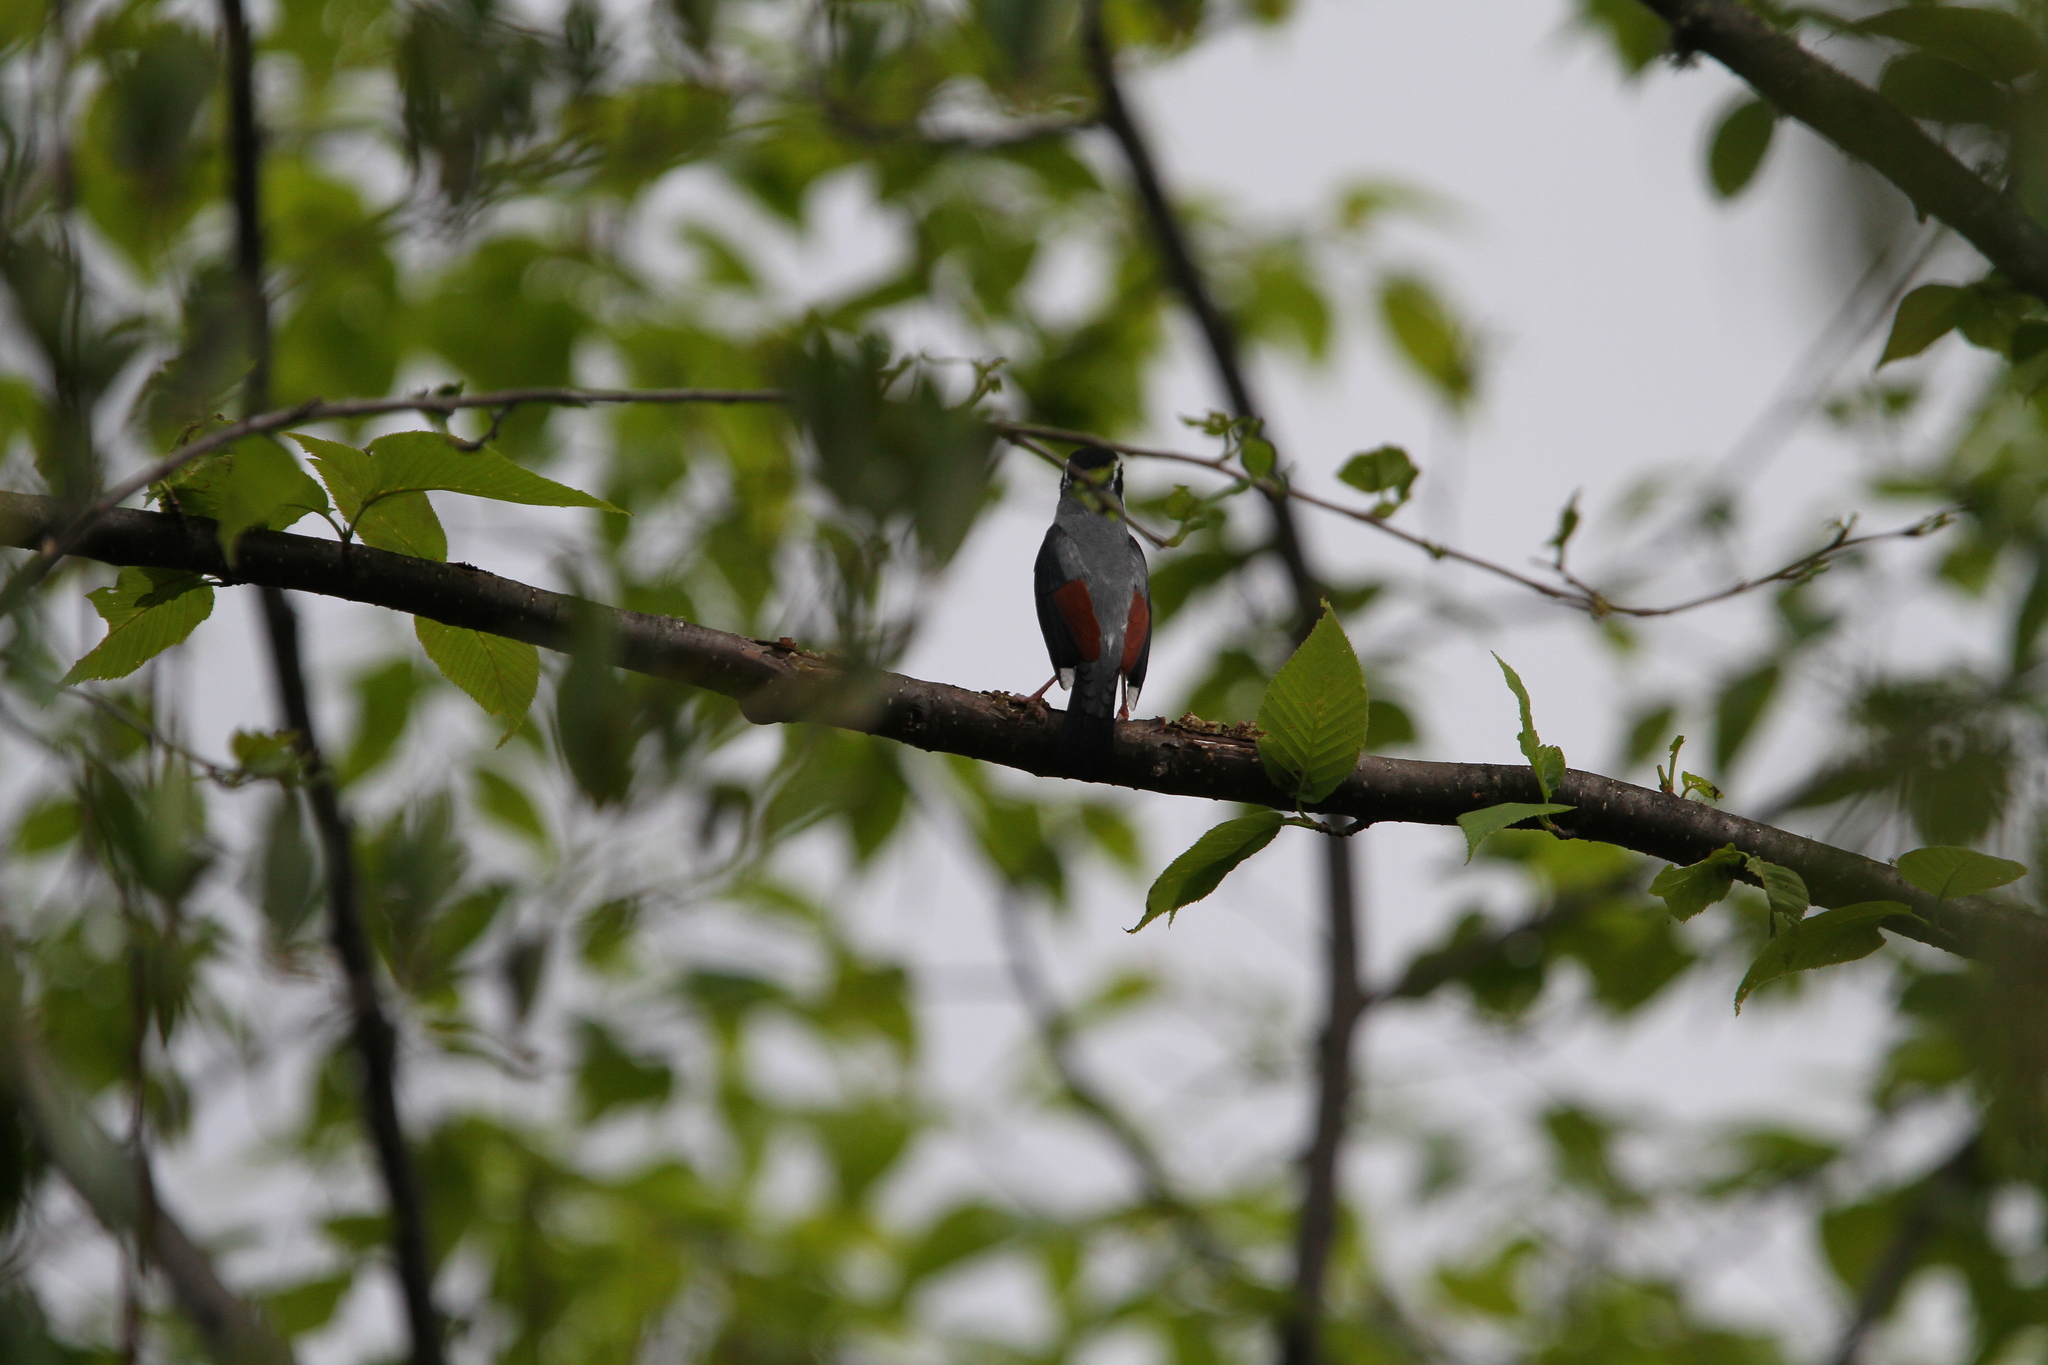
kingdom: Animalia
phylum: Chordata
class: Aves
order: Passeriformes
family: Vireonidae
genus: Pteruthius
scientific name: Pteruthius aeralatus
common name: Blyth's shrike-babbler
